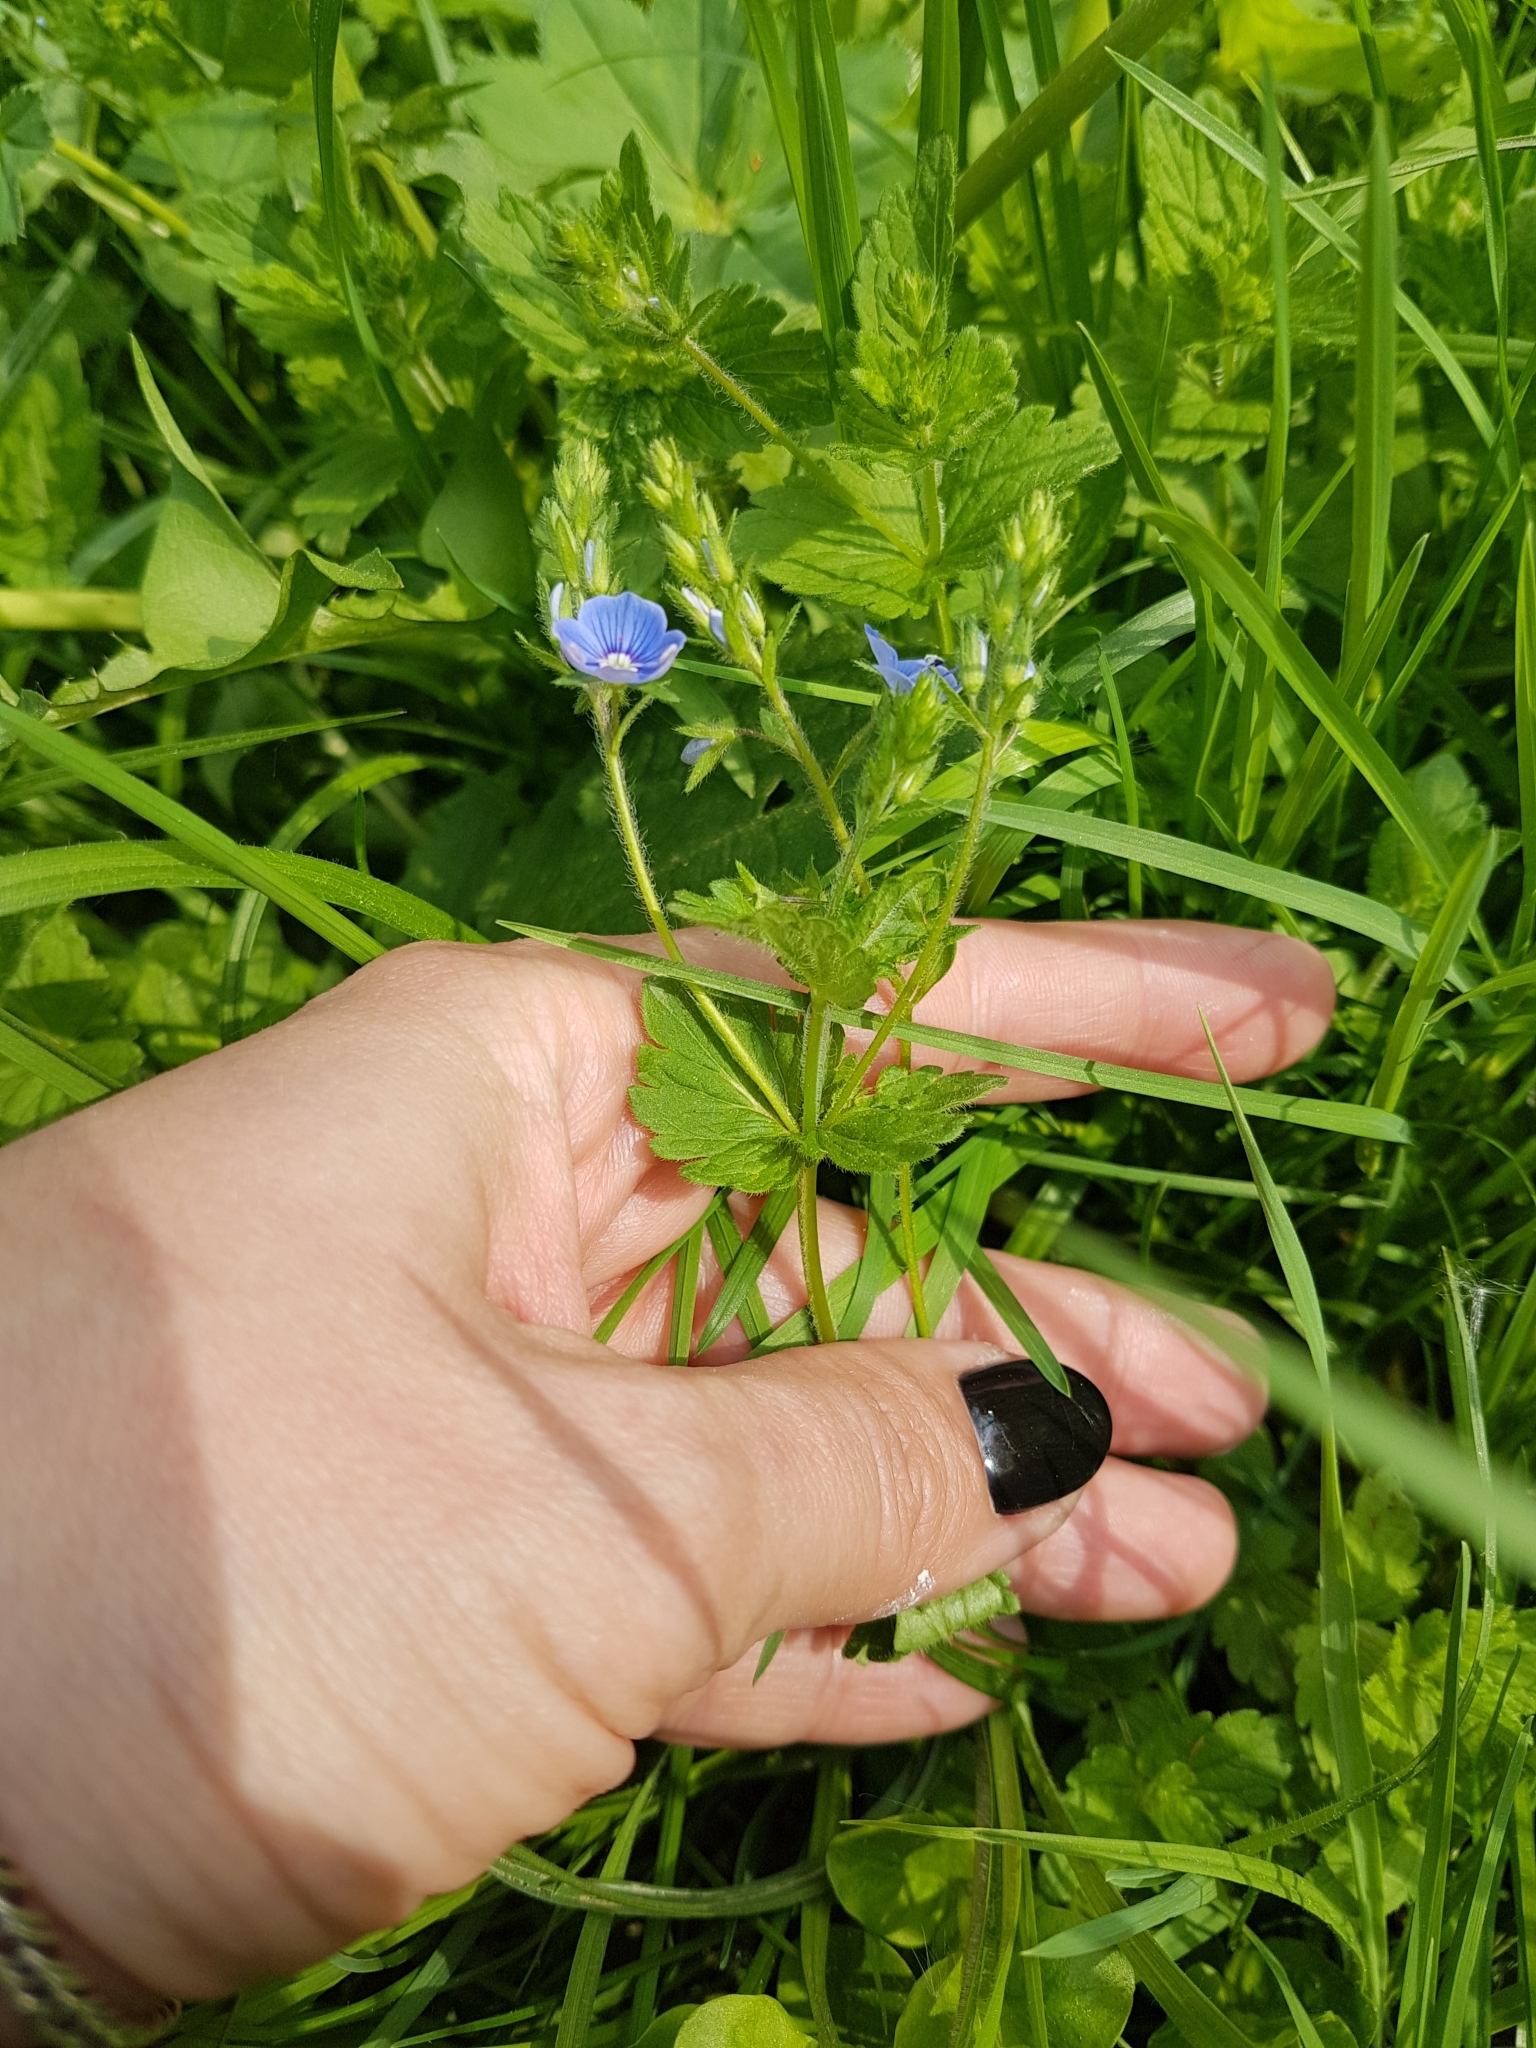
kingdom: Plantae
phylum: Tracheophyta
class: Magnoliopsida
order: Lamiales
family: Plantaginaceae
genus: Veronica
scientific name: Veronica chamaedrys
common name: Germander speedwell
